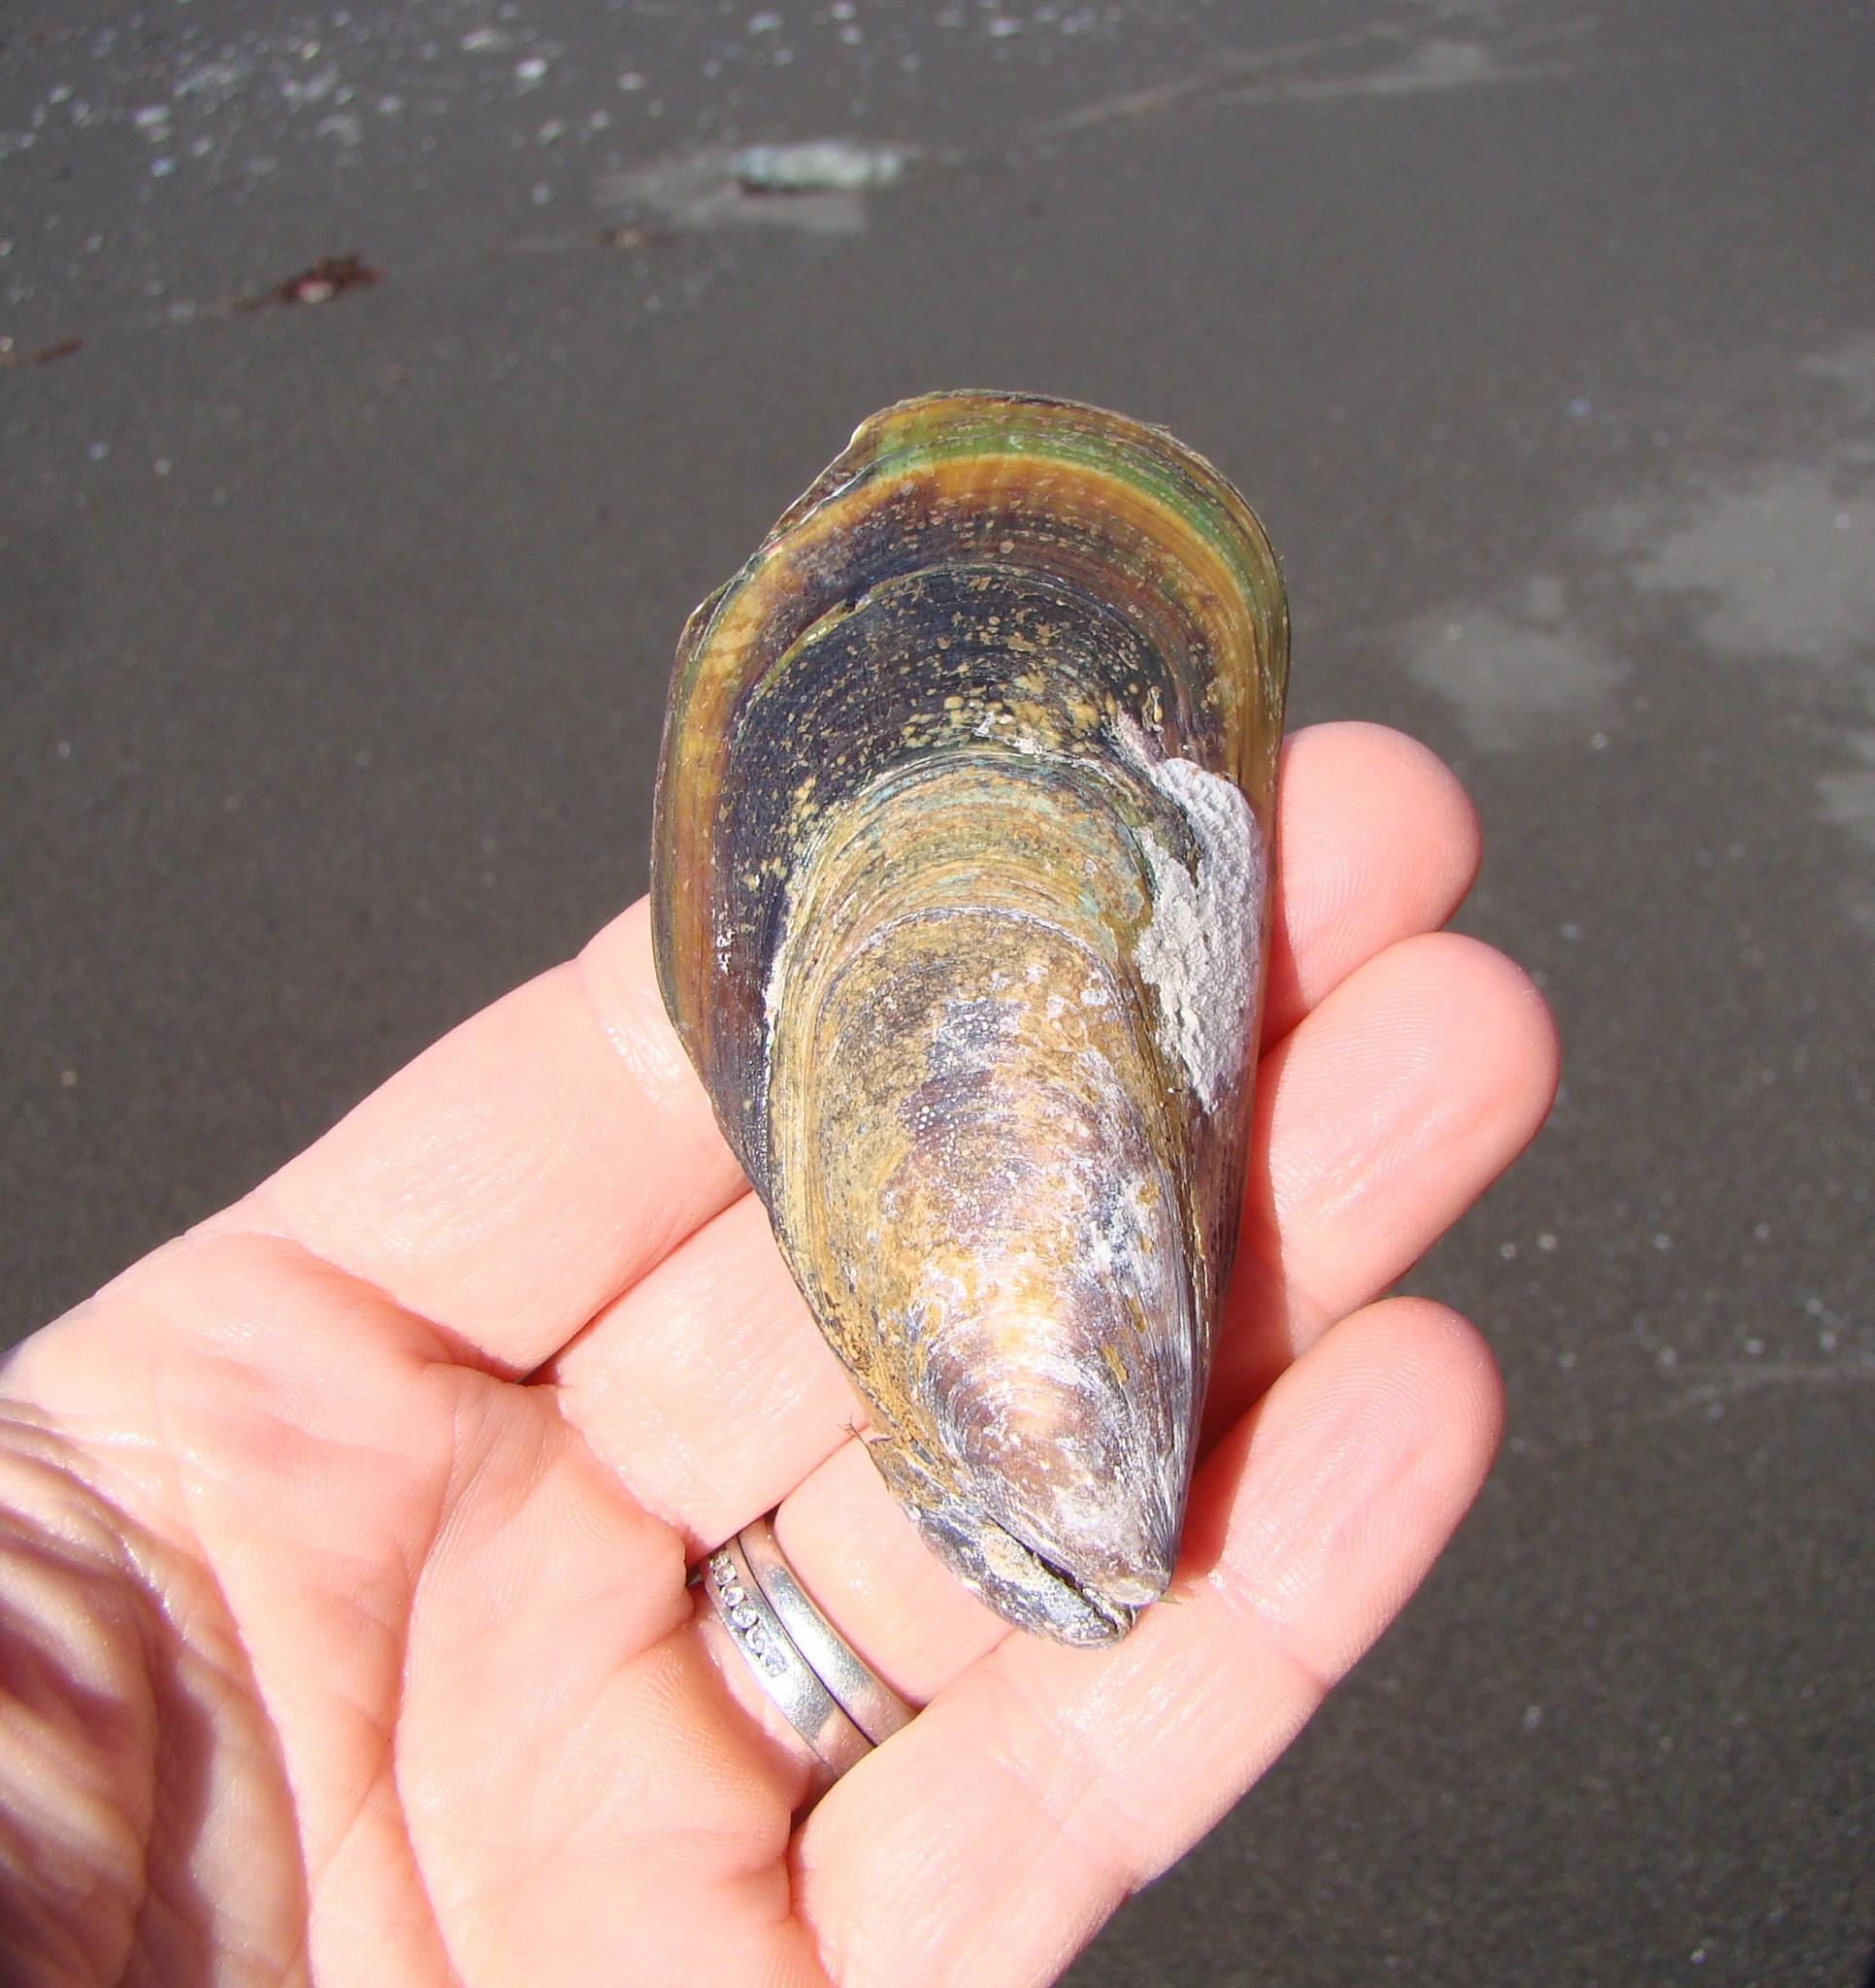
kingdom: Animalia
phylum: Mollusca
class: Bivalvia
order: Mytilida
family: Mytilidae
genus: Perna
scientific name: Perna canaliculus
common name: New zealand greenshelltm
